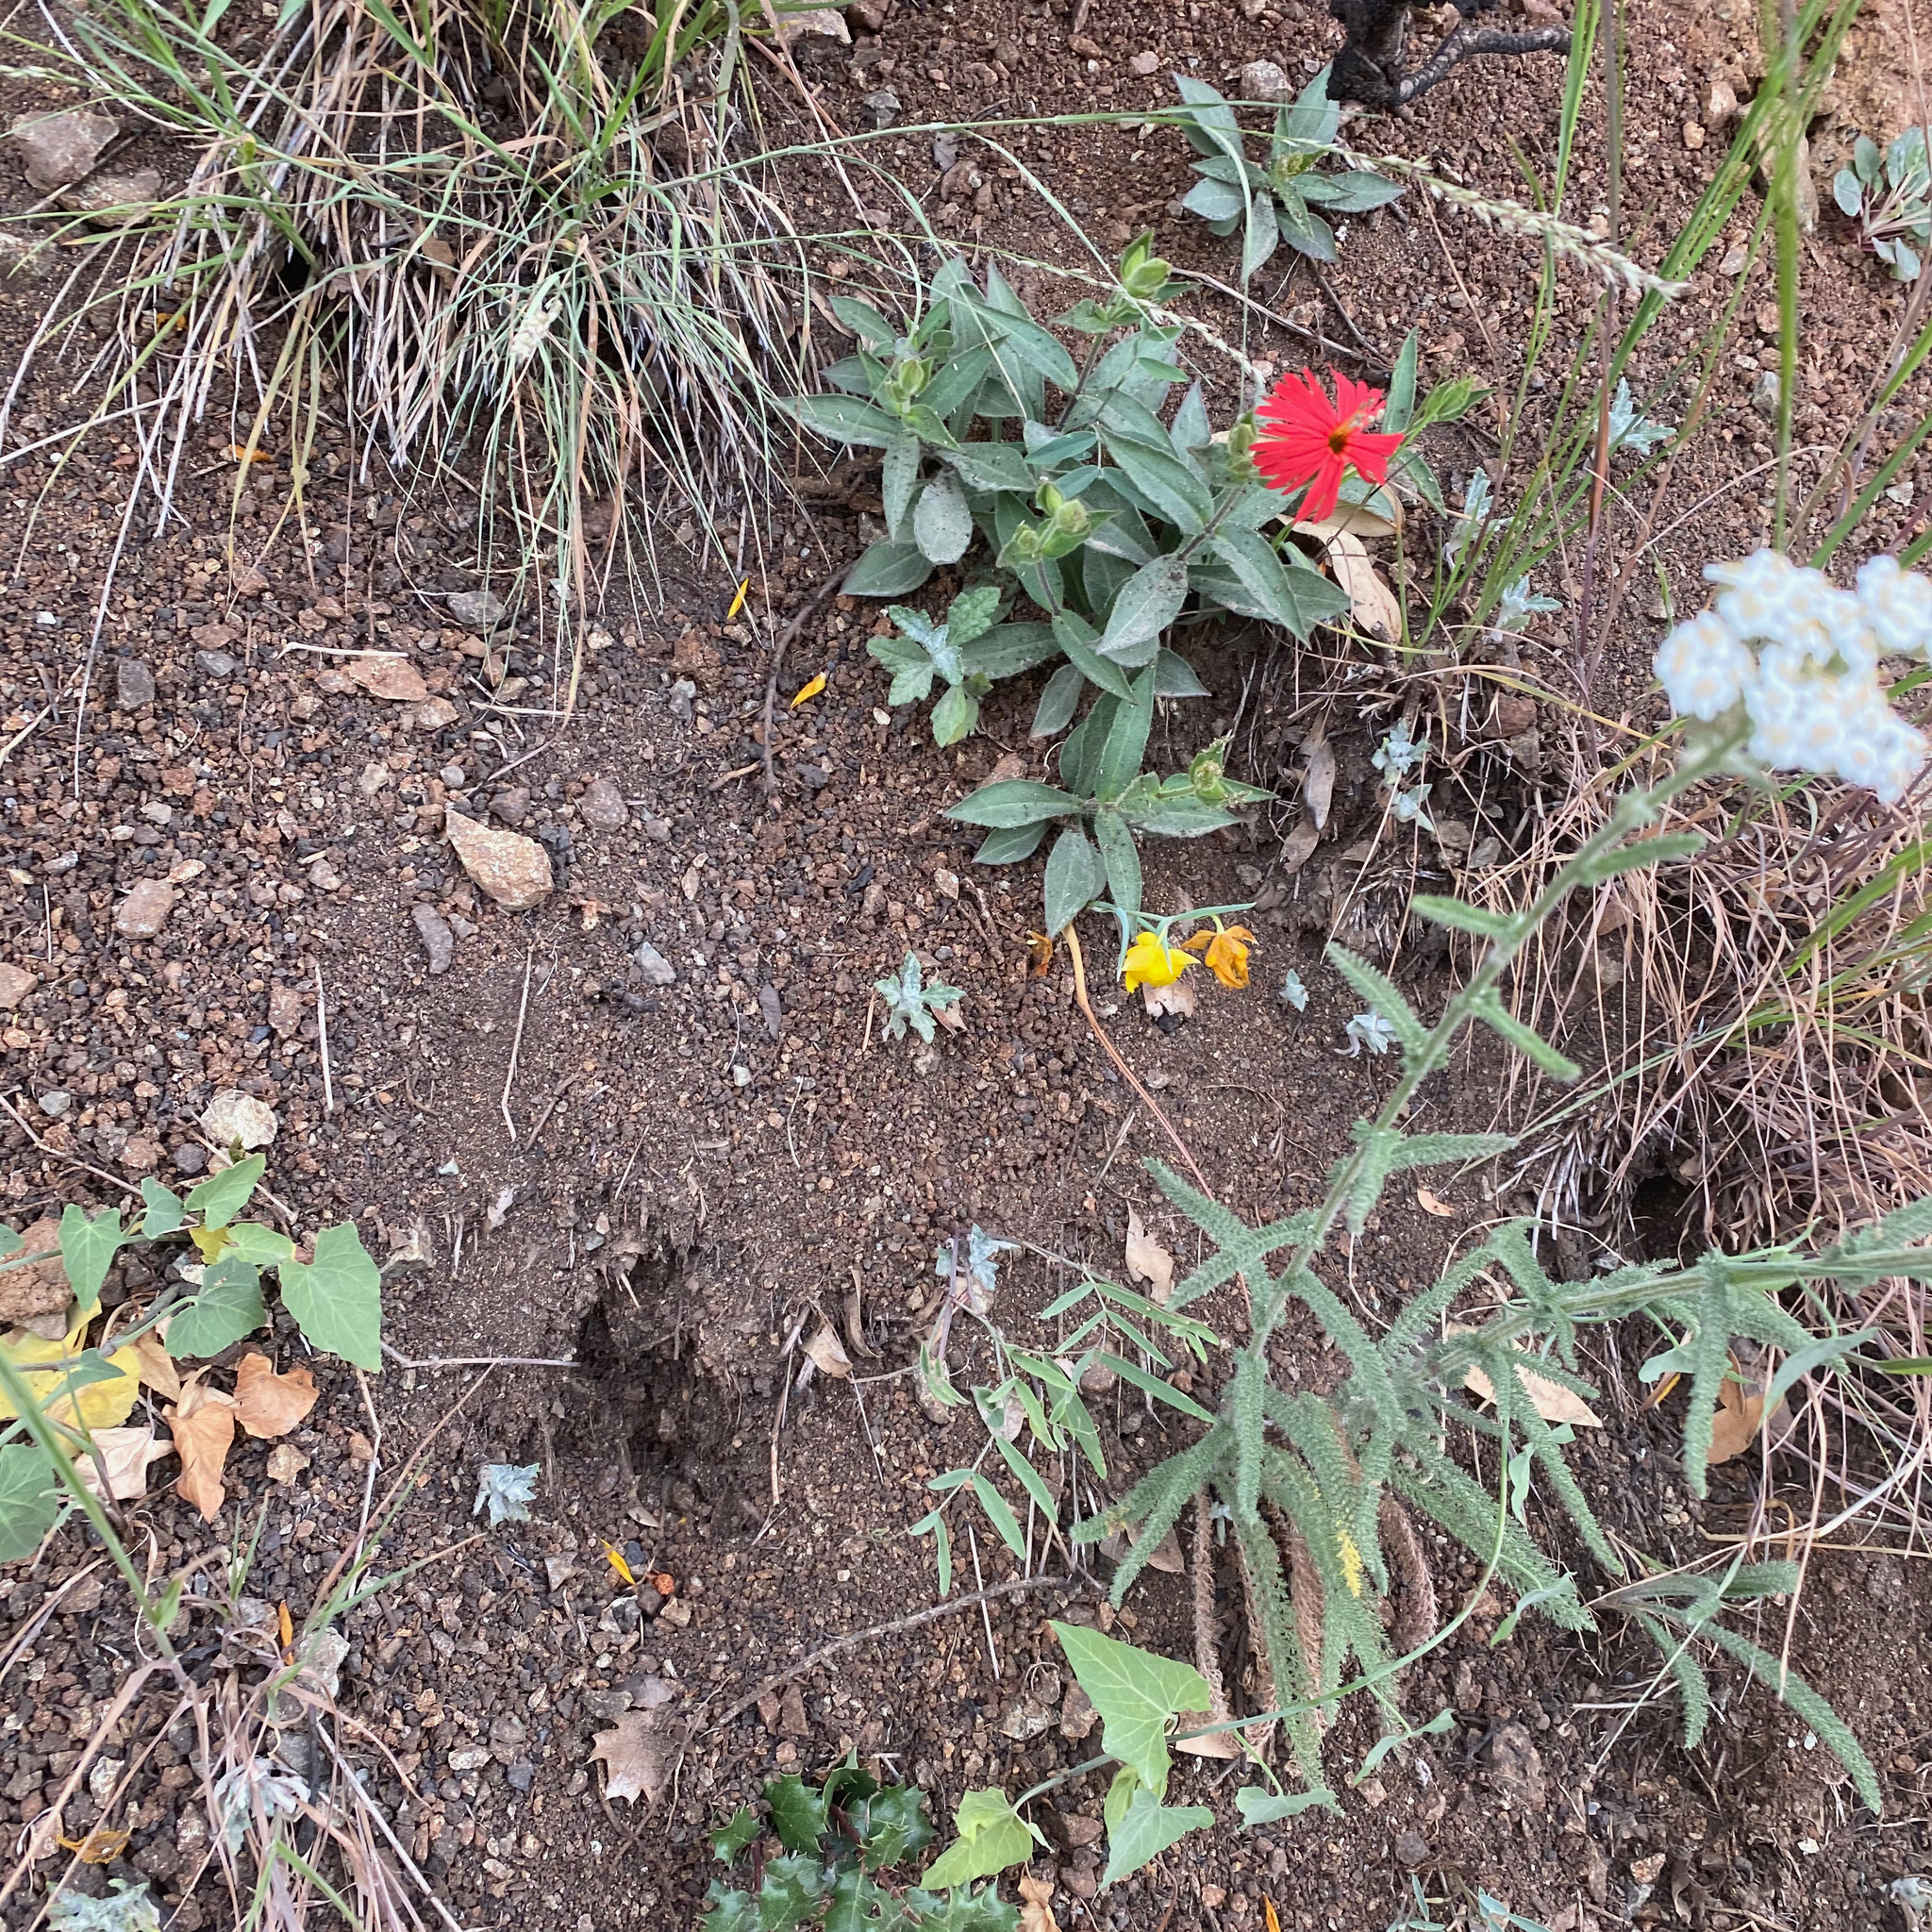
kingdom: Plantae
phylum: Tracheophyta
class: Magnoliopsida
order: Asterales
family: Asteraceae
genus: Achillea
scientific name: Achillea millefolium
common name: Yarrow
